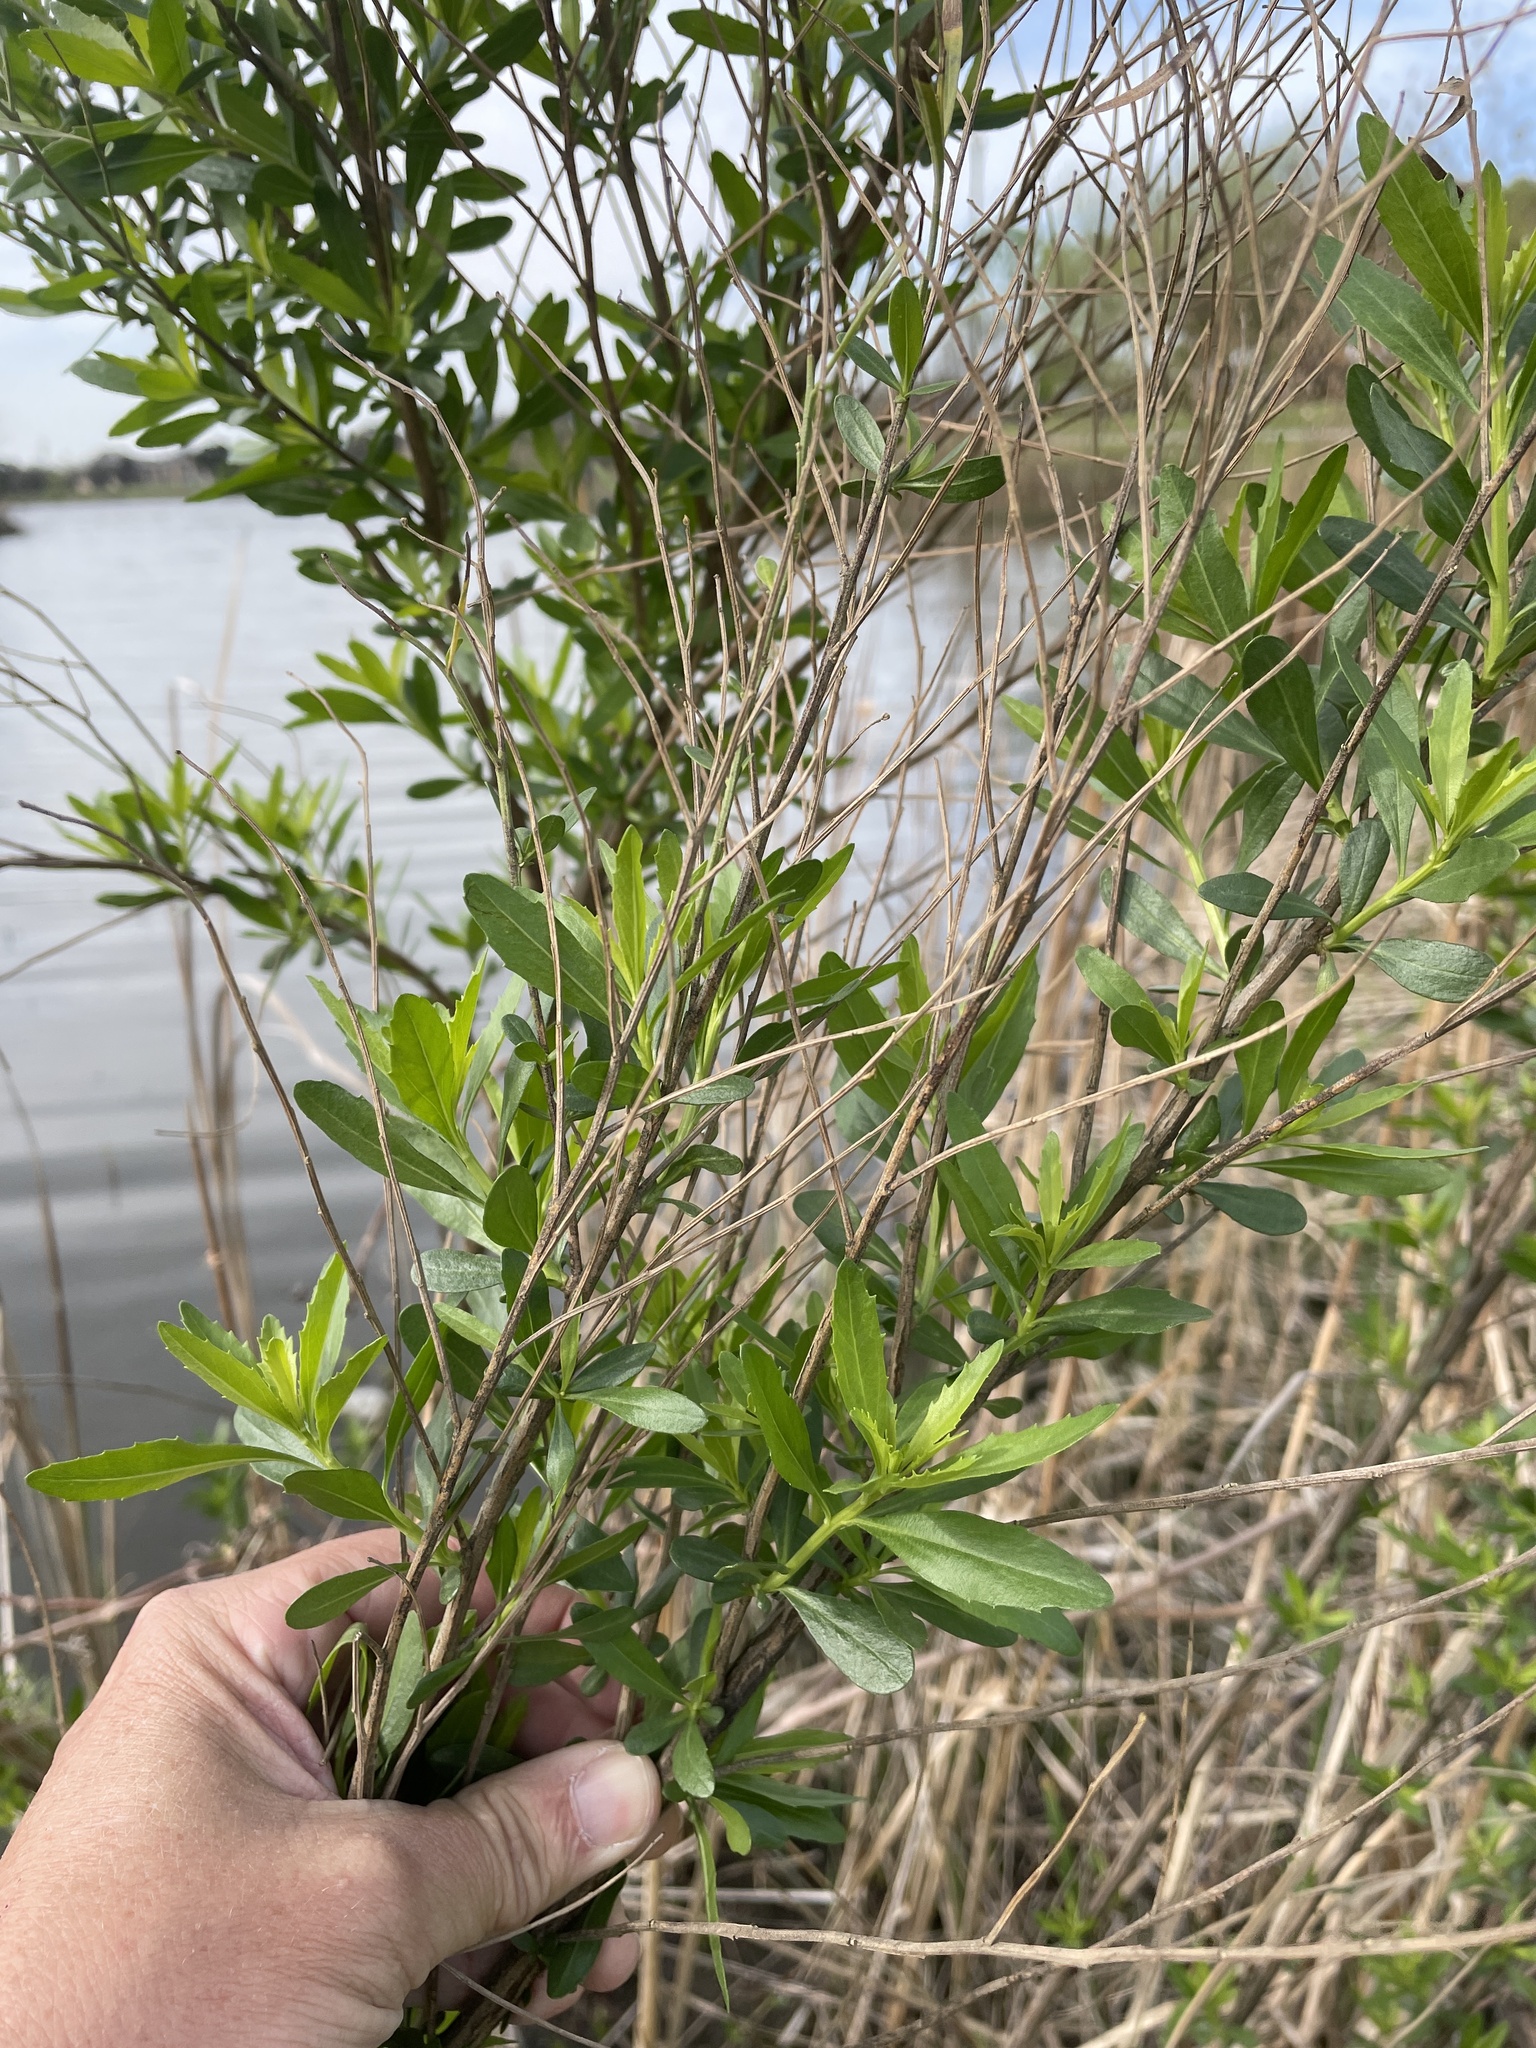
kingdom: Plantae
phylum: Tracheophyta
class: Magnoliopsida
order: Asterales
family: Asteraceae
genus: Baccharis
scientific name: Baccharis neglecta
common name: Roosevelt-weed
